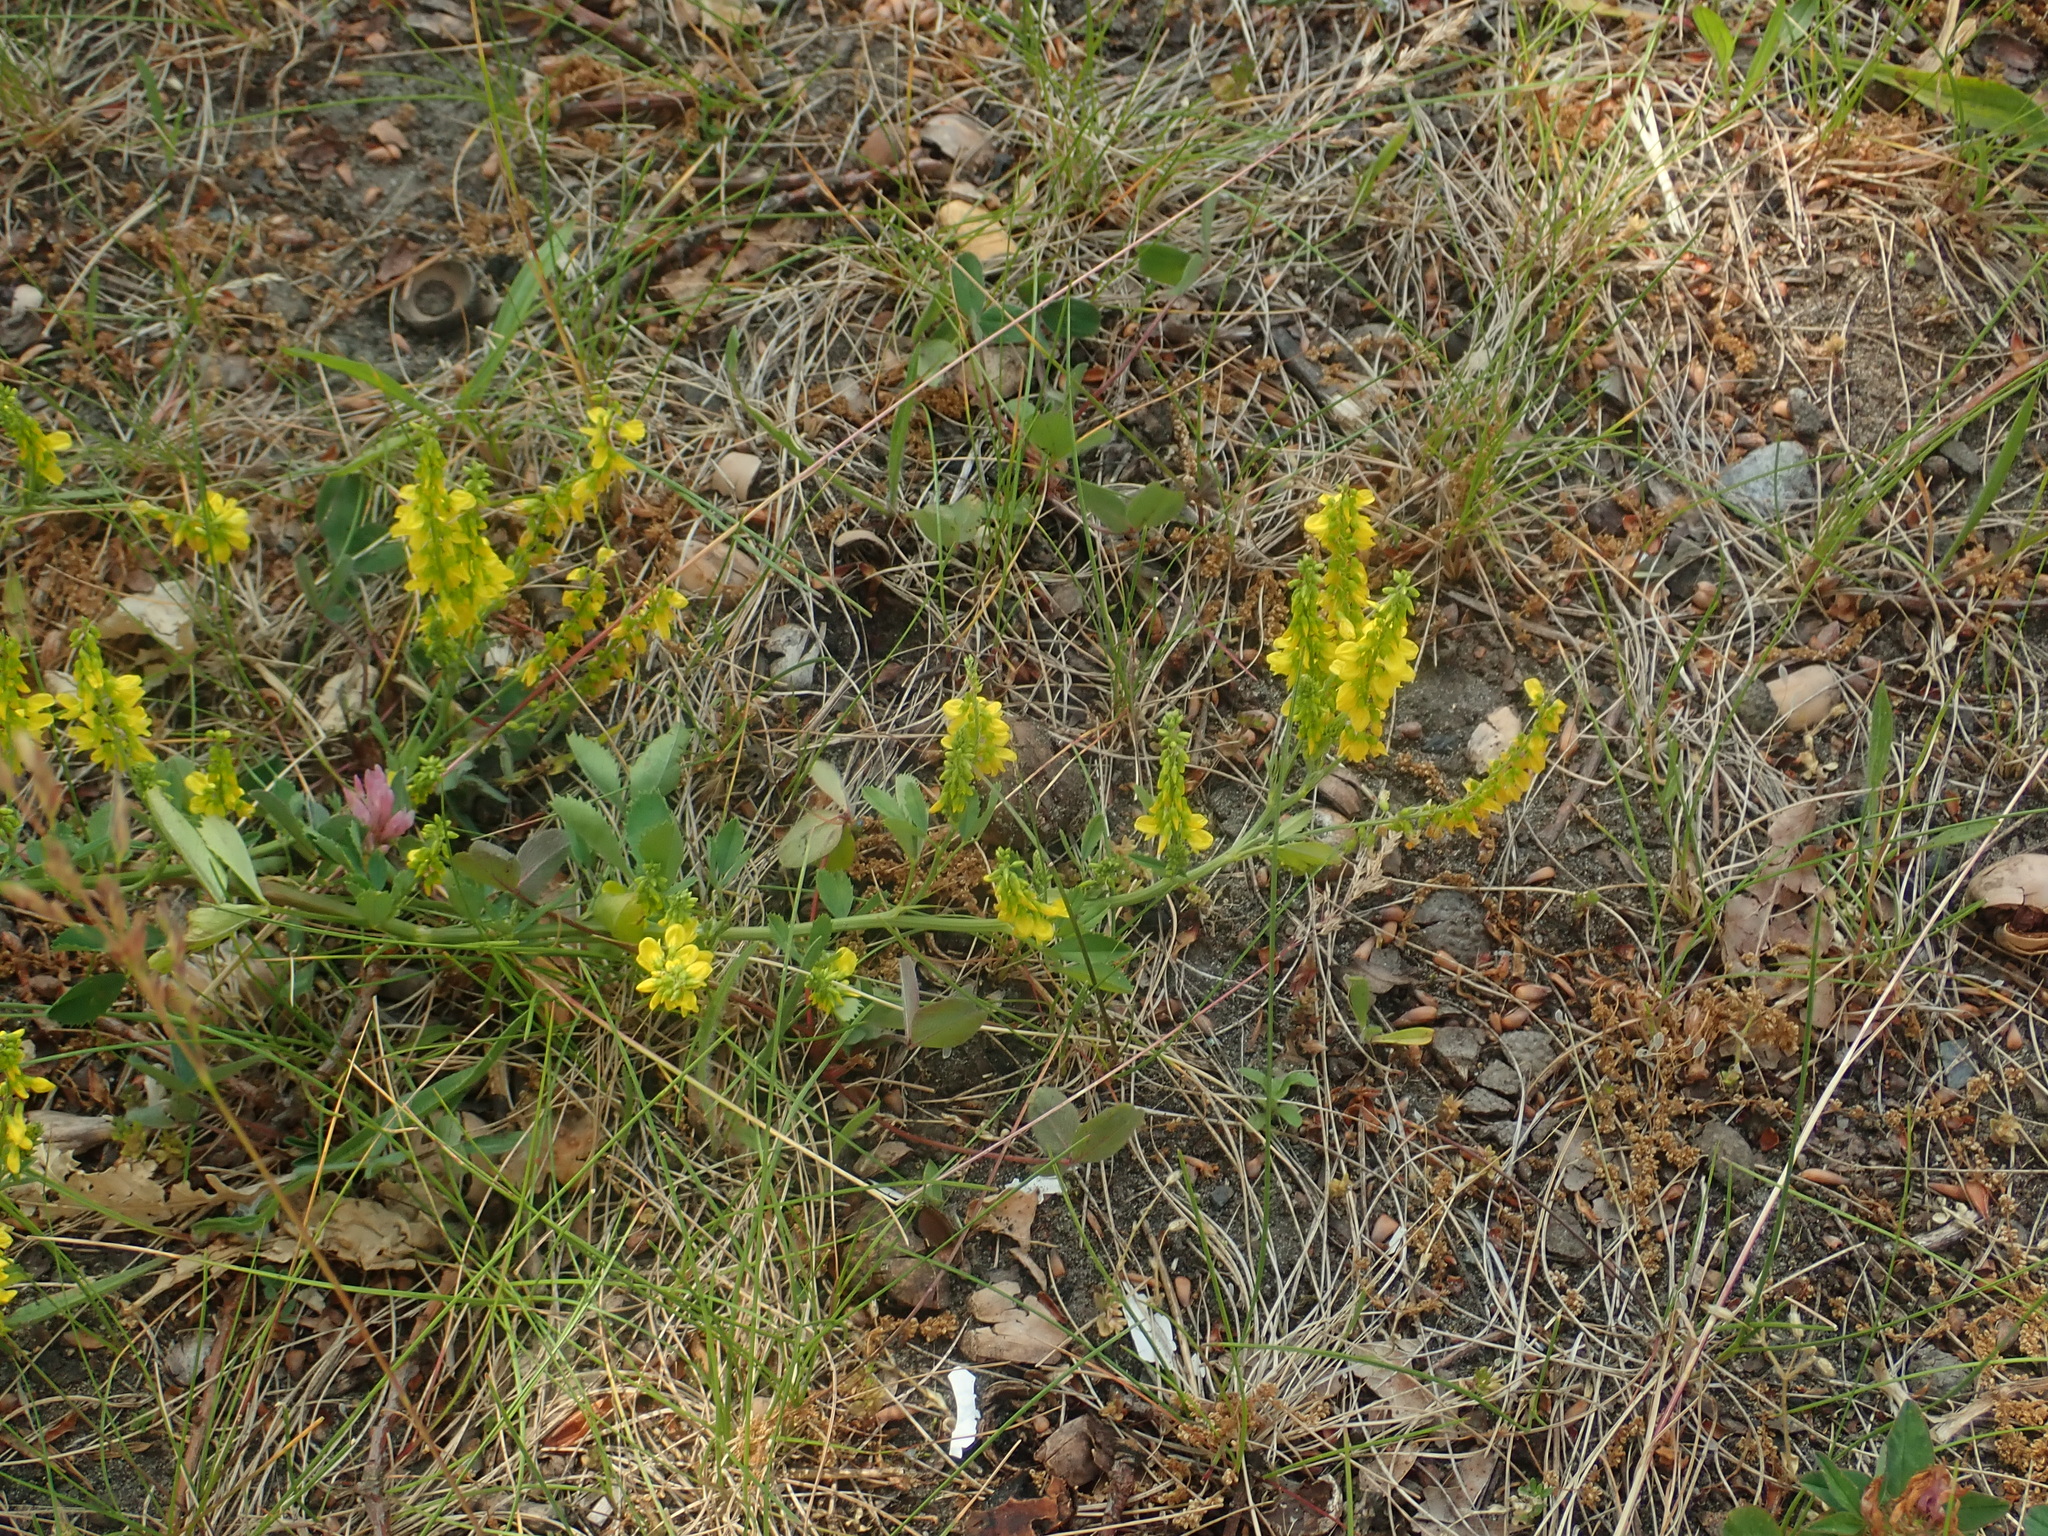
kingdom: Plantae
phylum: Tracheophyta
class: Magnoliopsida
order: Fabales
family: Fabaceae
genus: Melilotus
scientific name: Melilotus officinalis
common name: Sweetclover
